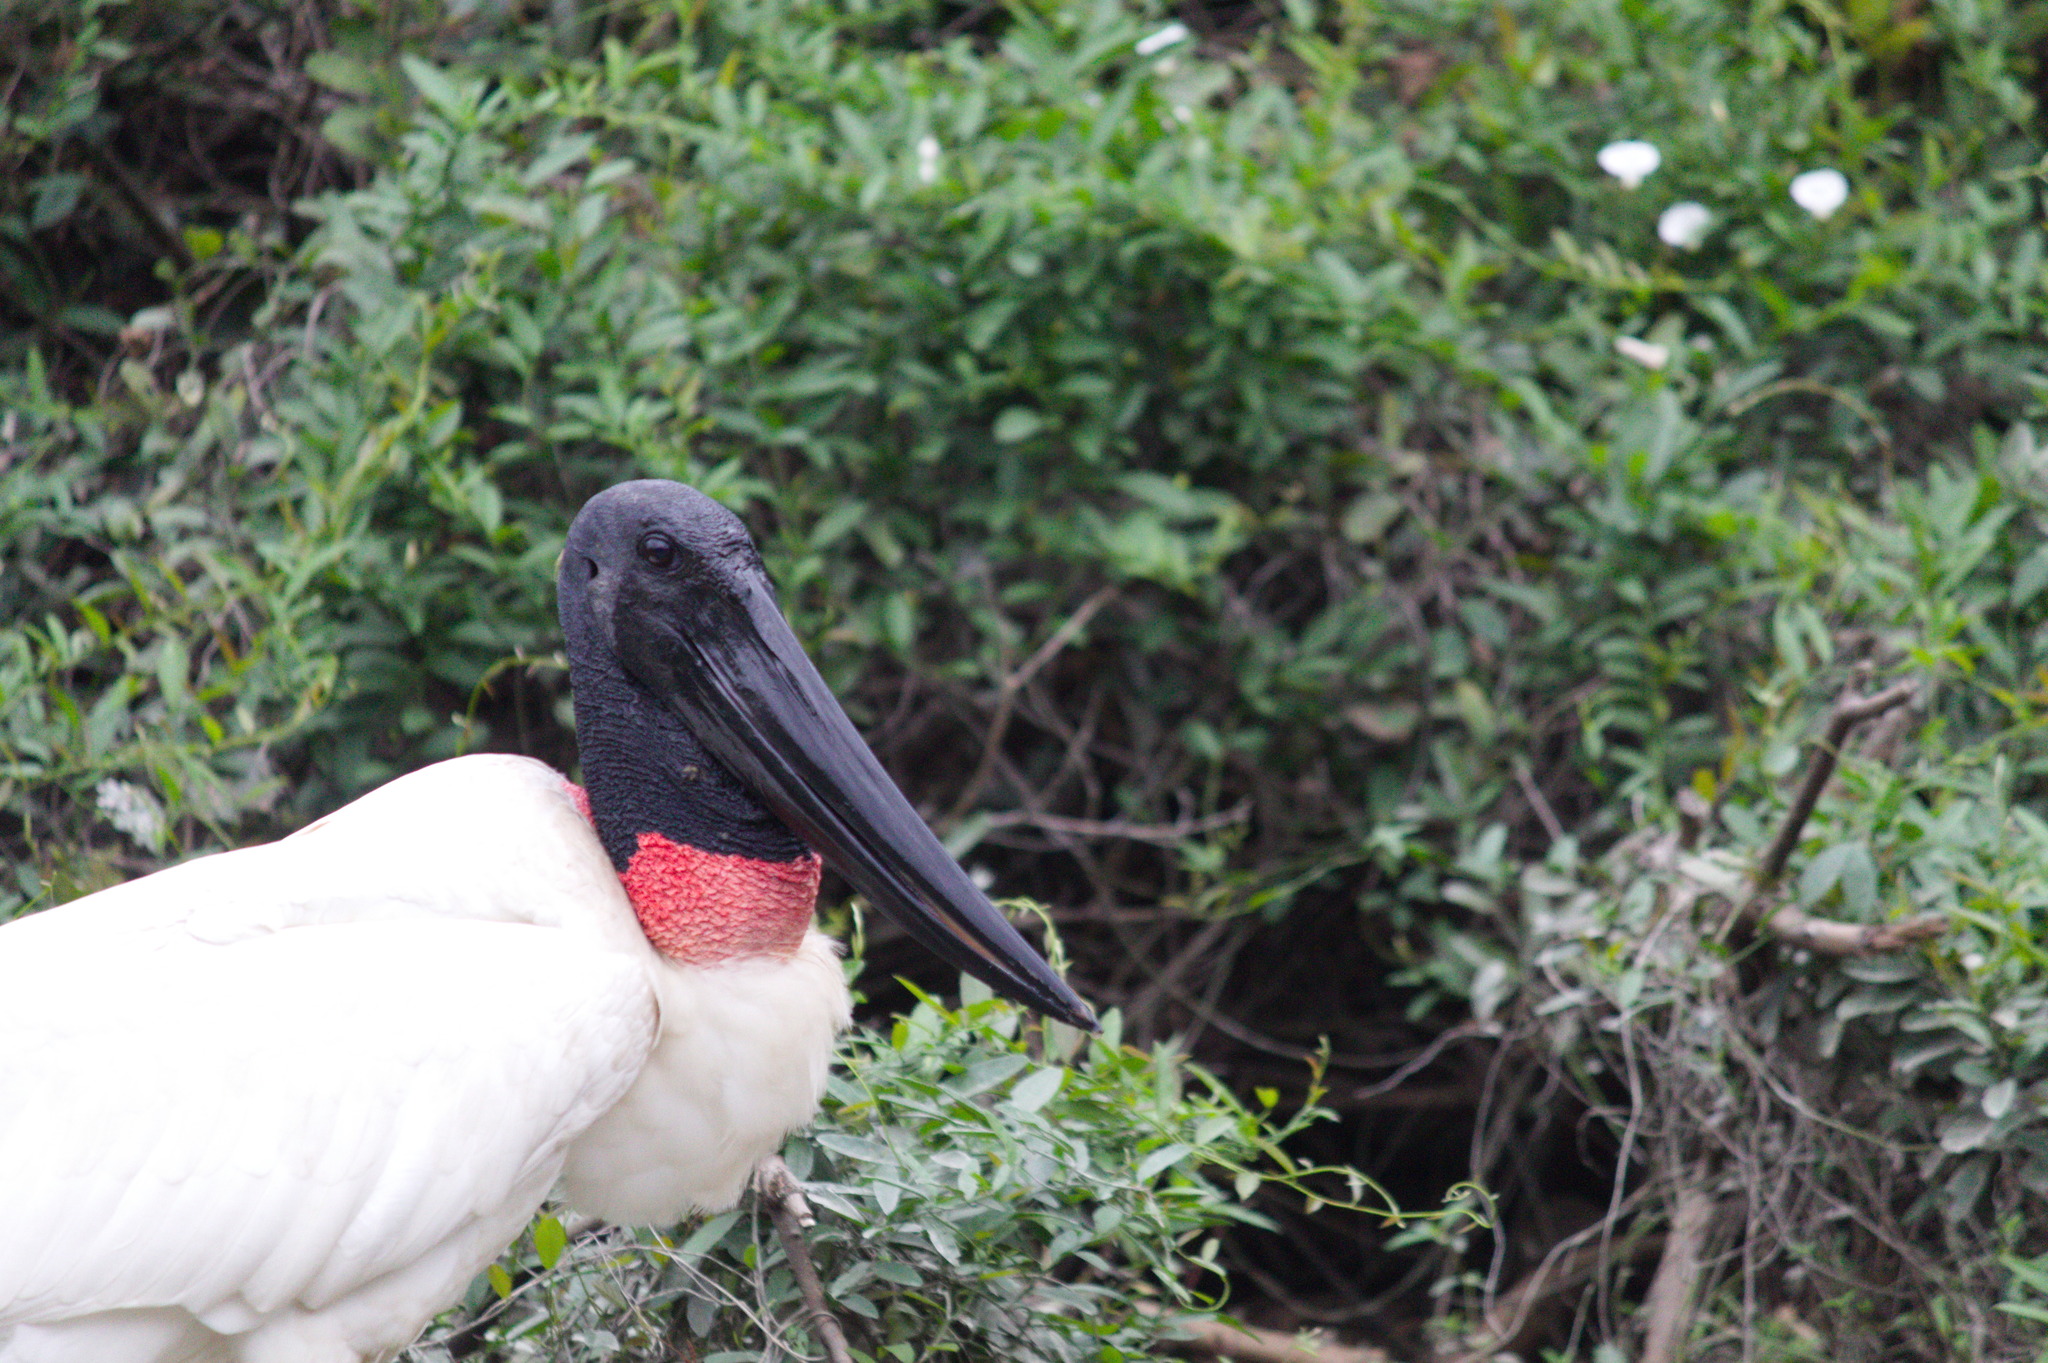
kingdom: Animalia
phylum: Chordata
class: Aves
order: Ciconiiformes
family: Ciconiidae
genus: Jabiru
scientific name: Jabiru mycteria
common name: Jabiru
